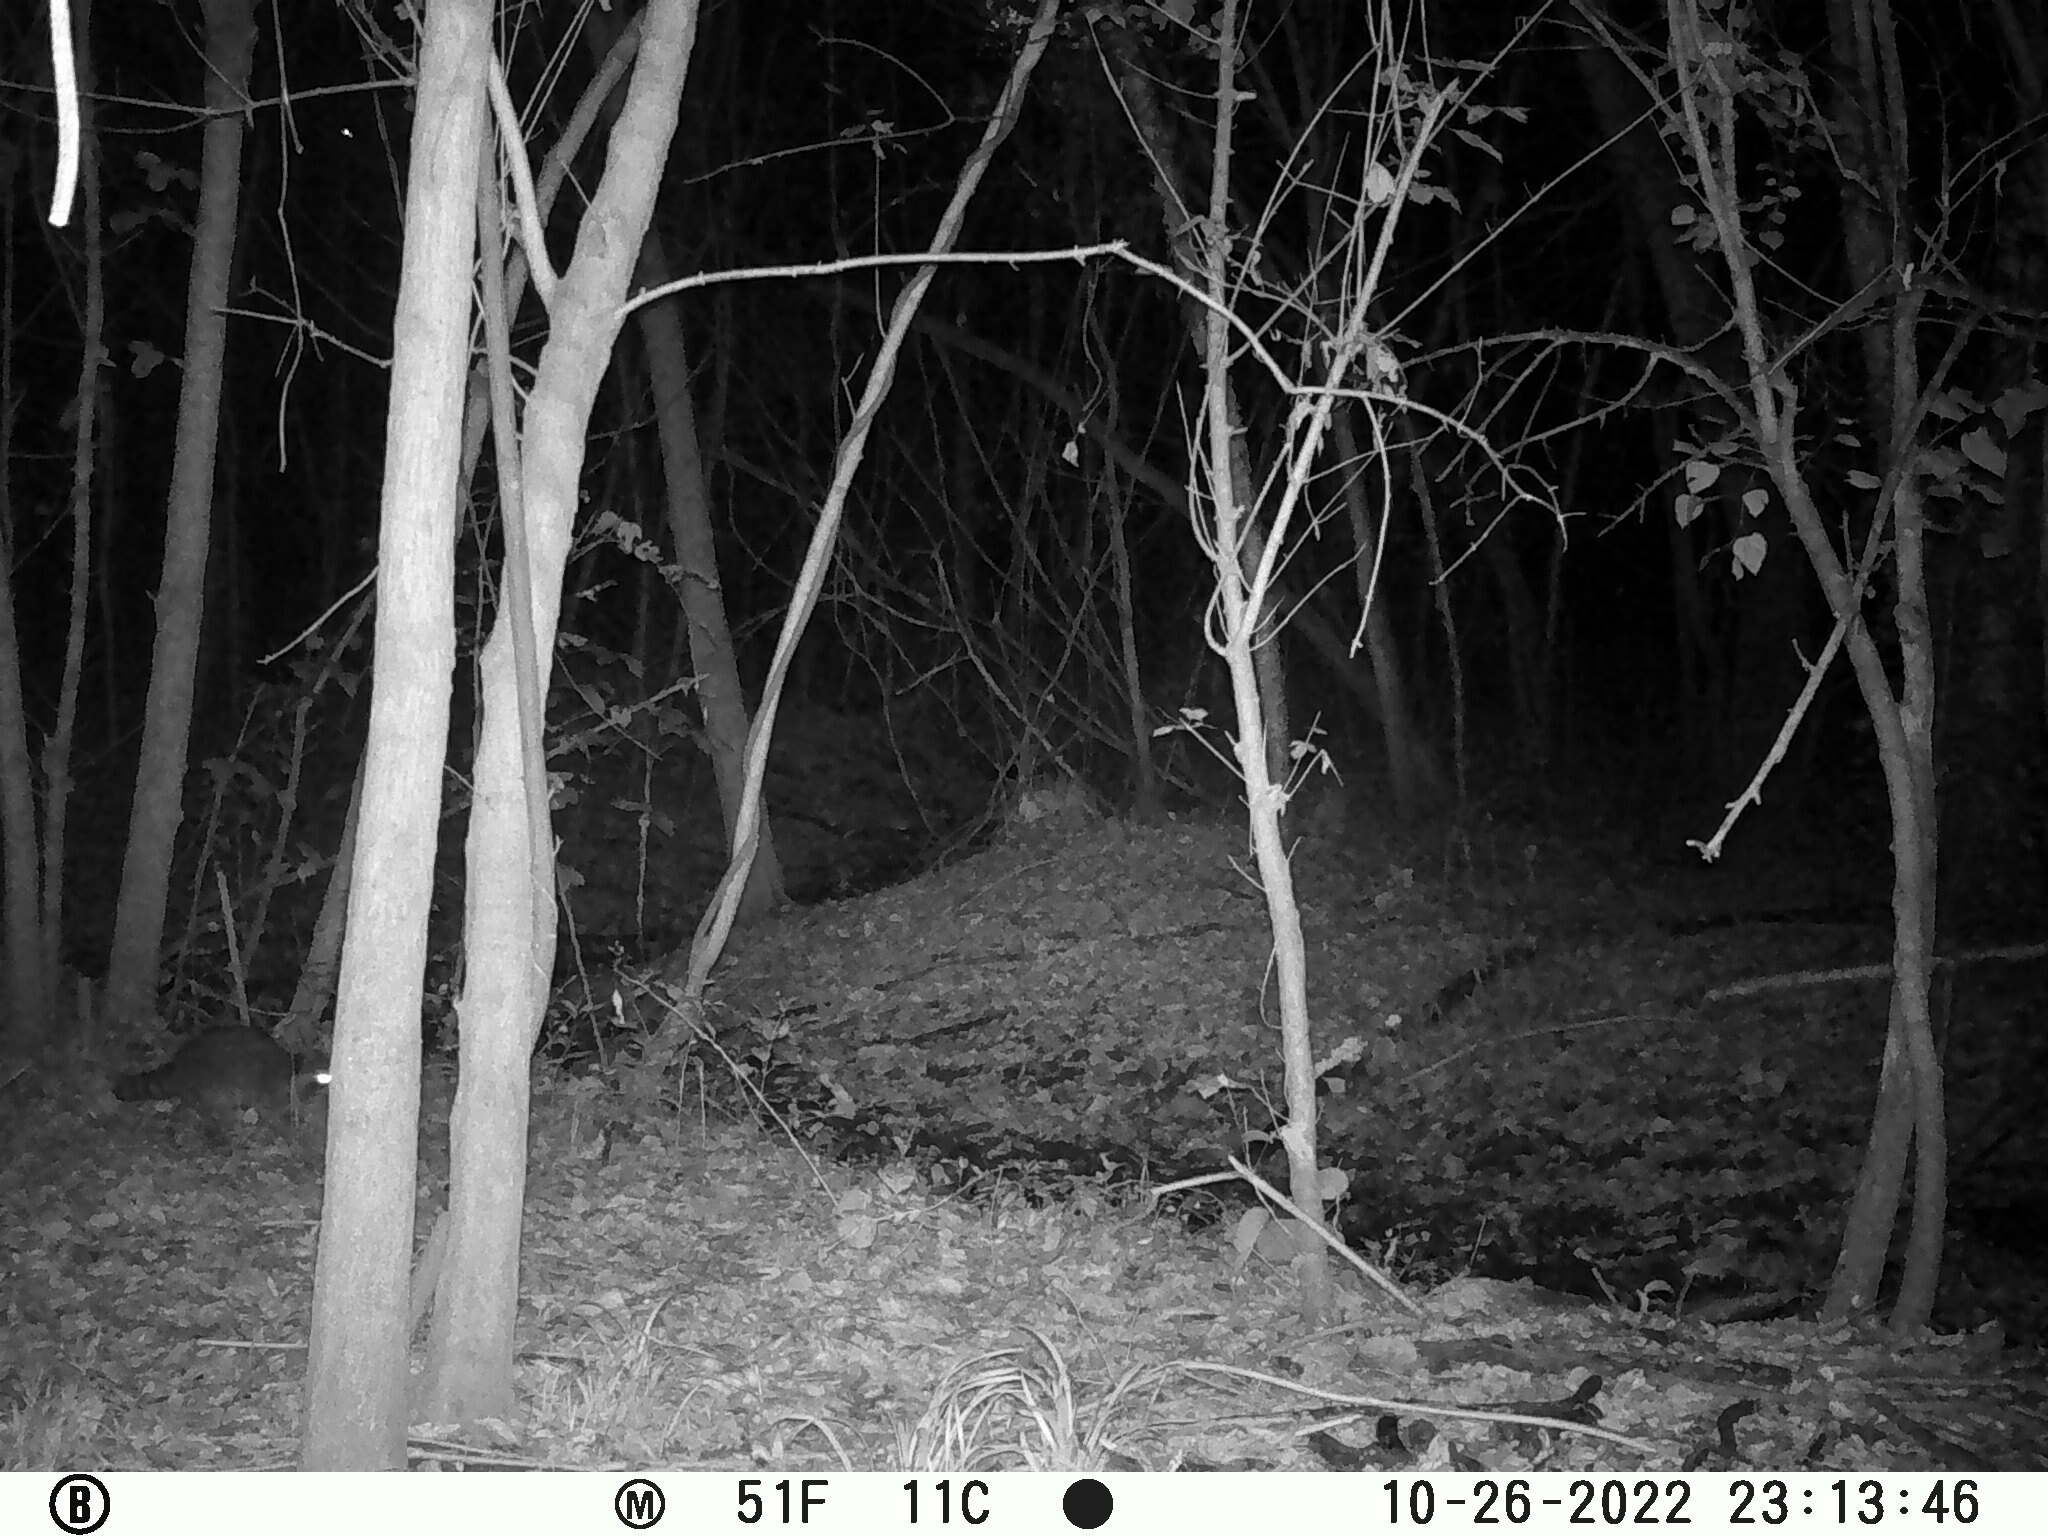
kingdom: Animalia
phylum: Chordata
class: Mammalia
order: Carnivora
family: Procyonidae
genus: Procyon
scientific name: Procyon lotor
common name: Raccoon
